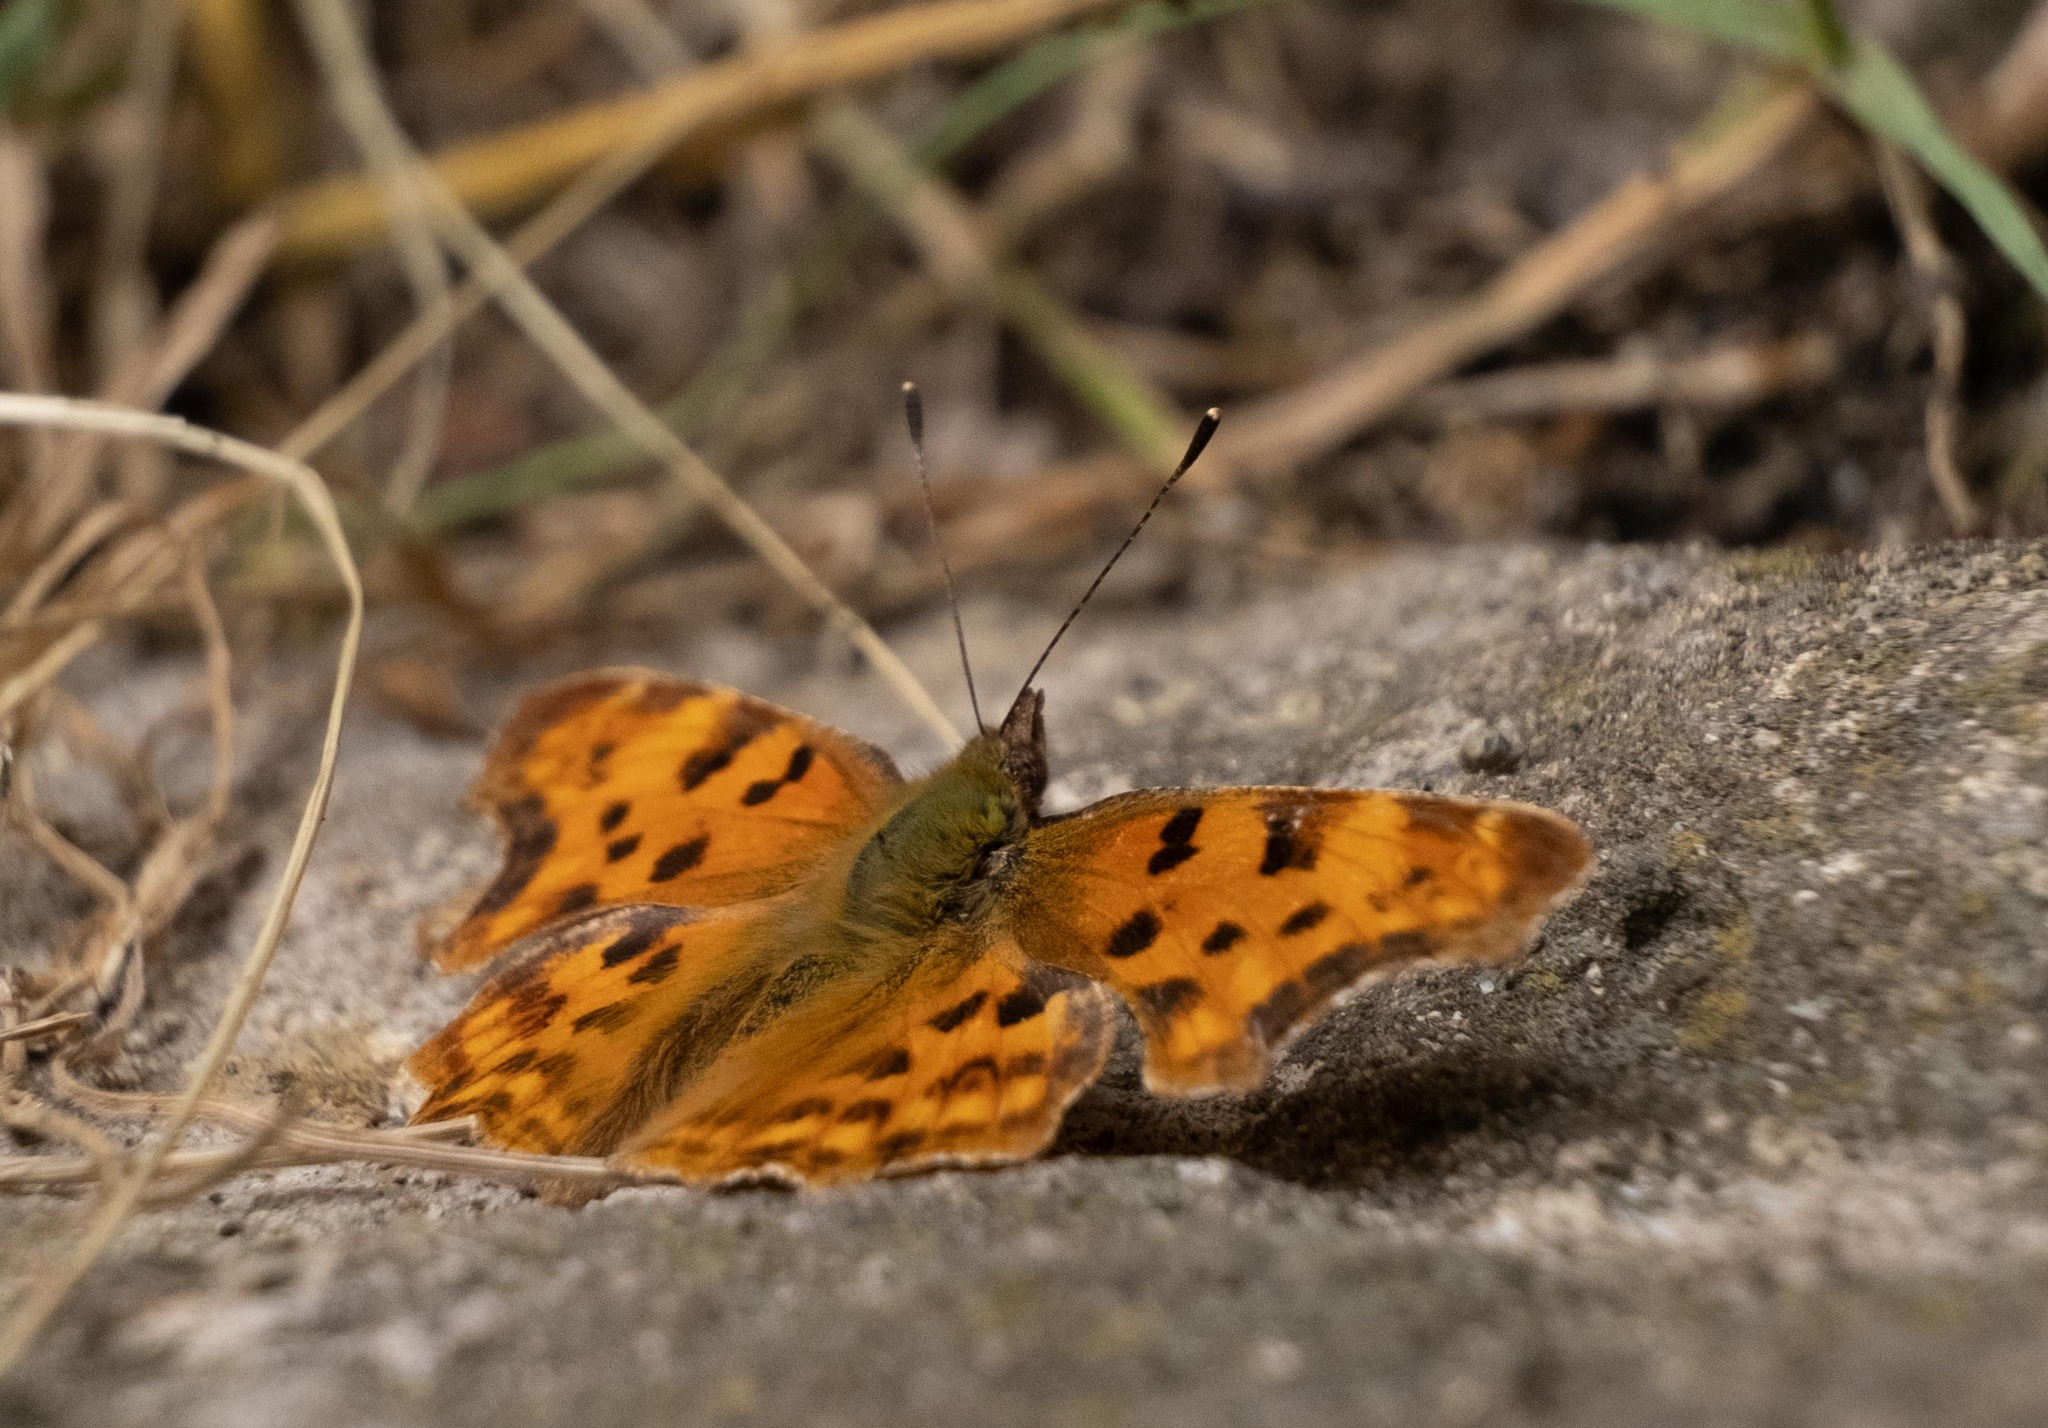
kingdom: Animalia
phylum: Arthropoda
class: Insecta
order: Lepidoptera
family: Nymphalidae
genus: Polygonia
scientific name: Polygonia c-album
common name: Comma
